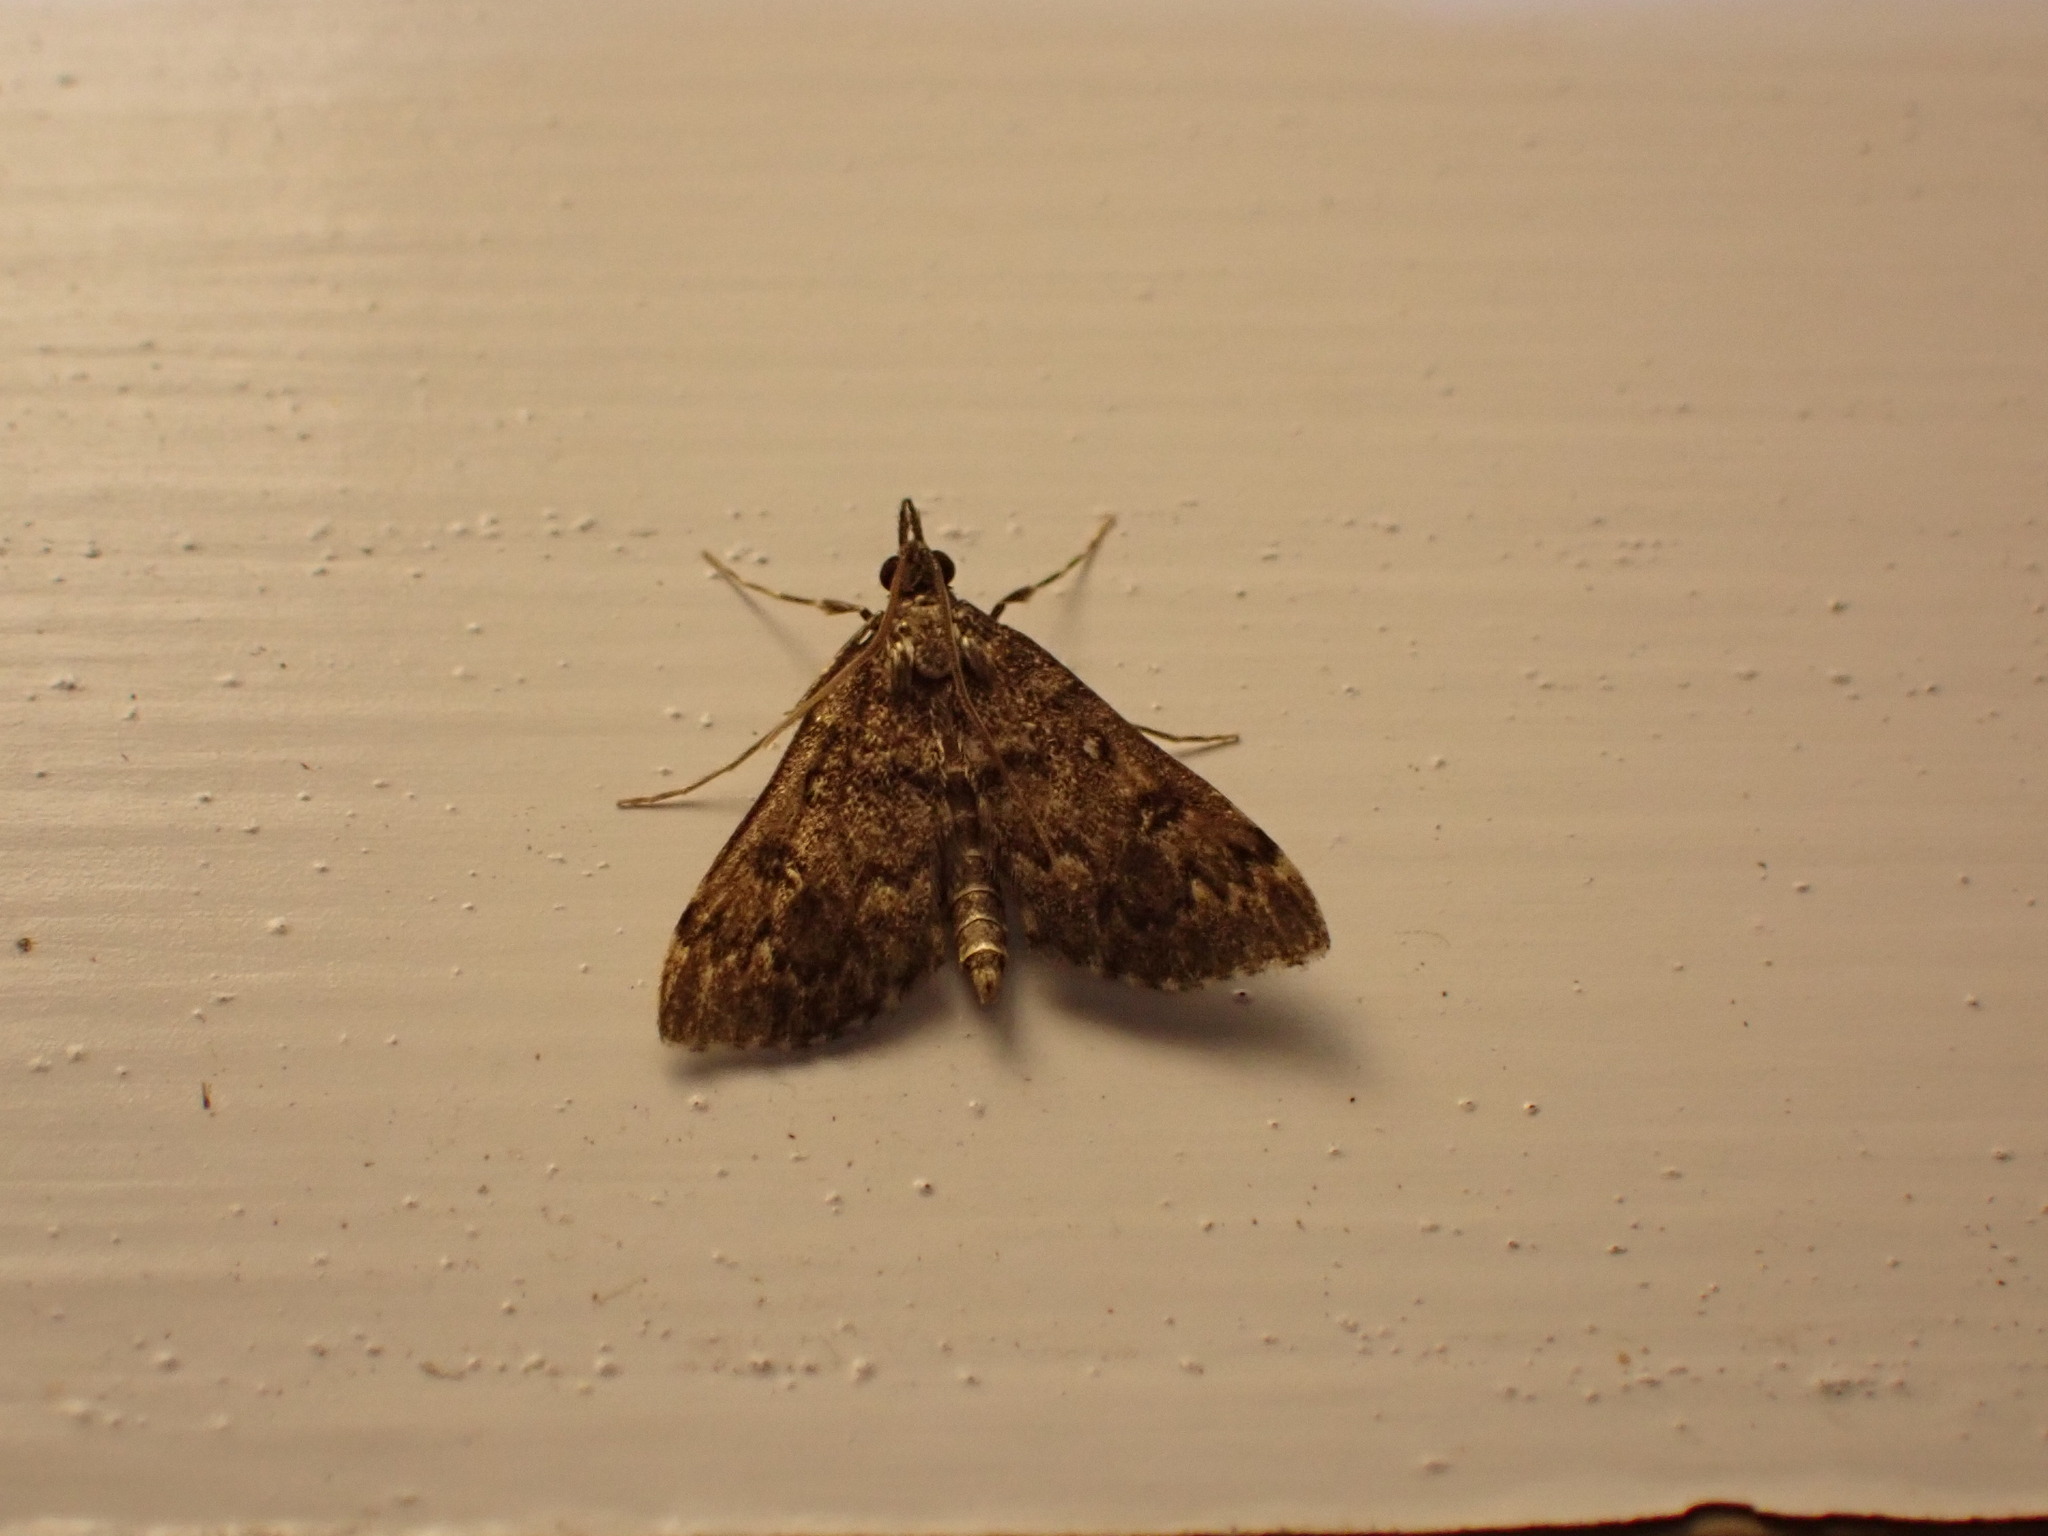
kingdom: Animalia
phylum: Arthropoda
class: Insecta
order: Lepidoptera
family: Crambidae
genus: Loxostege
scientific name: Loxostege Proternia philocapna
